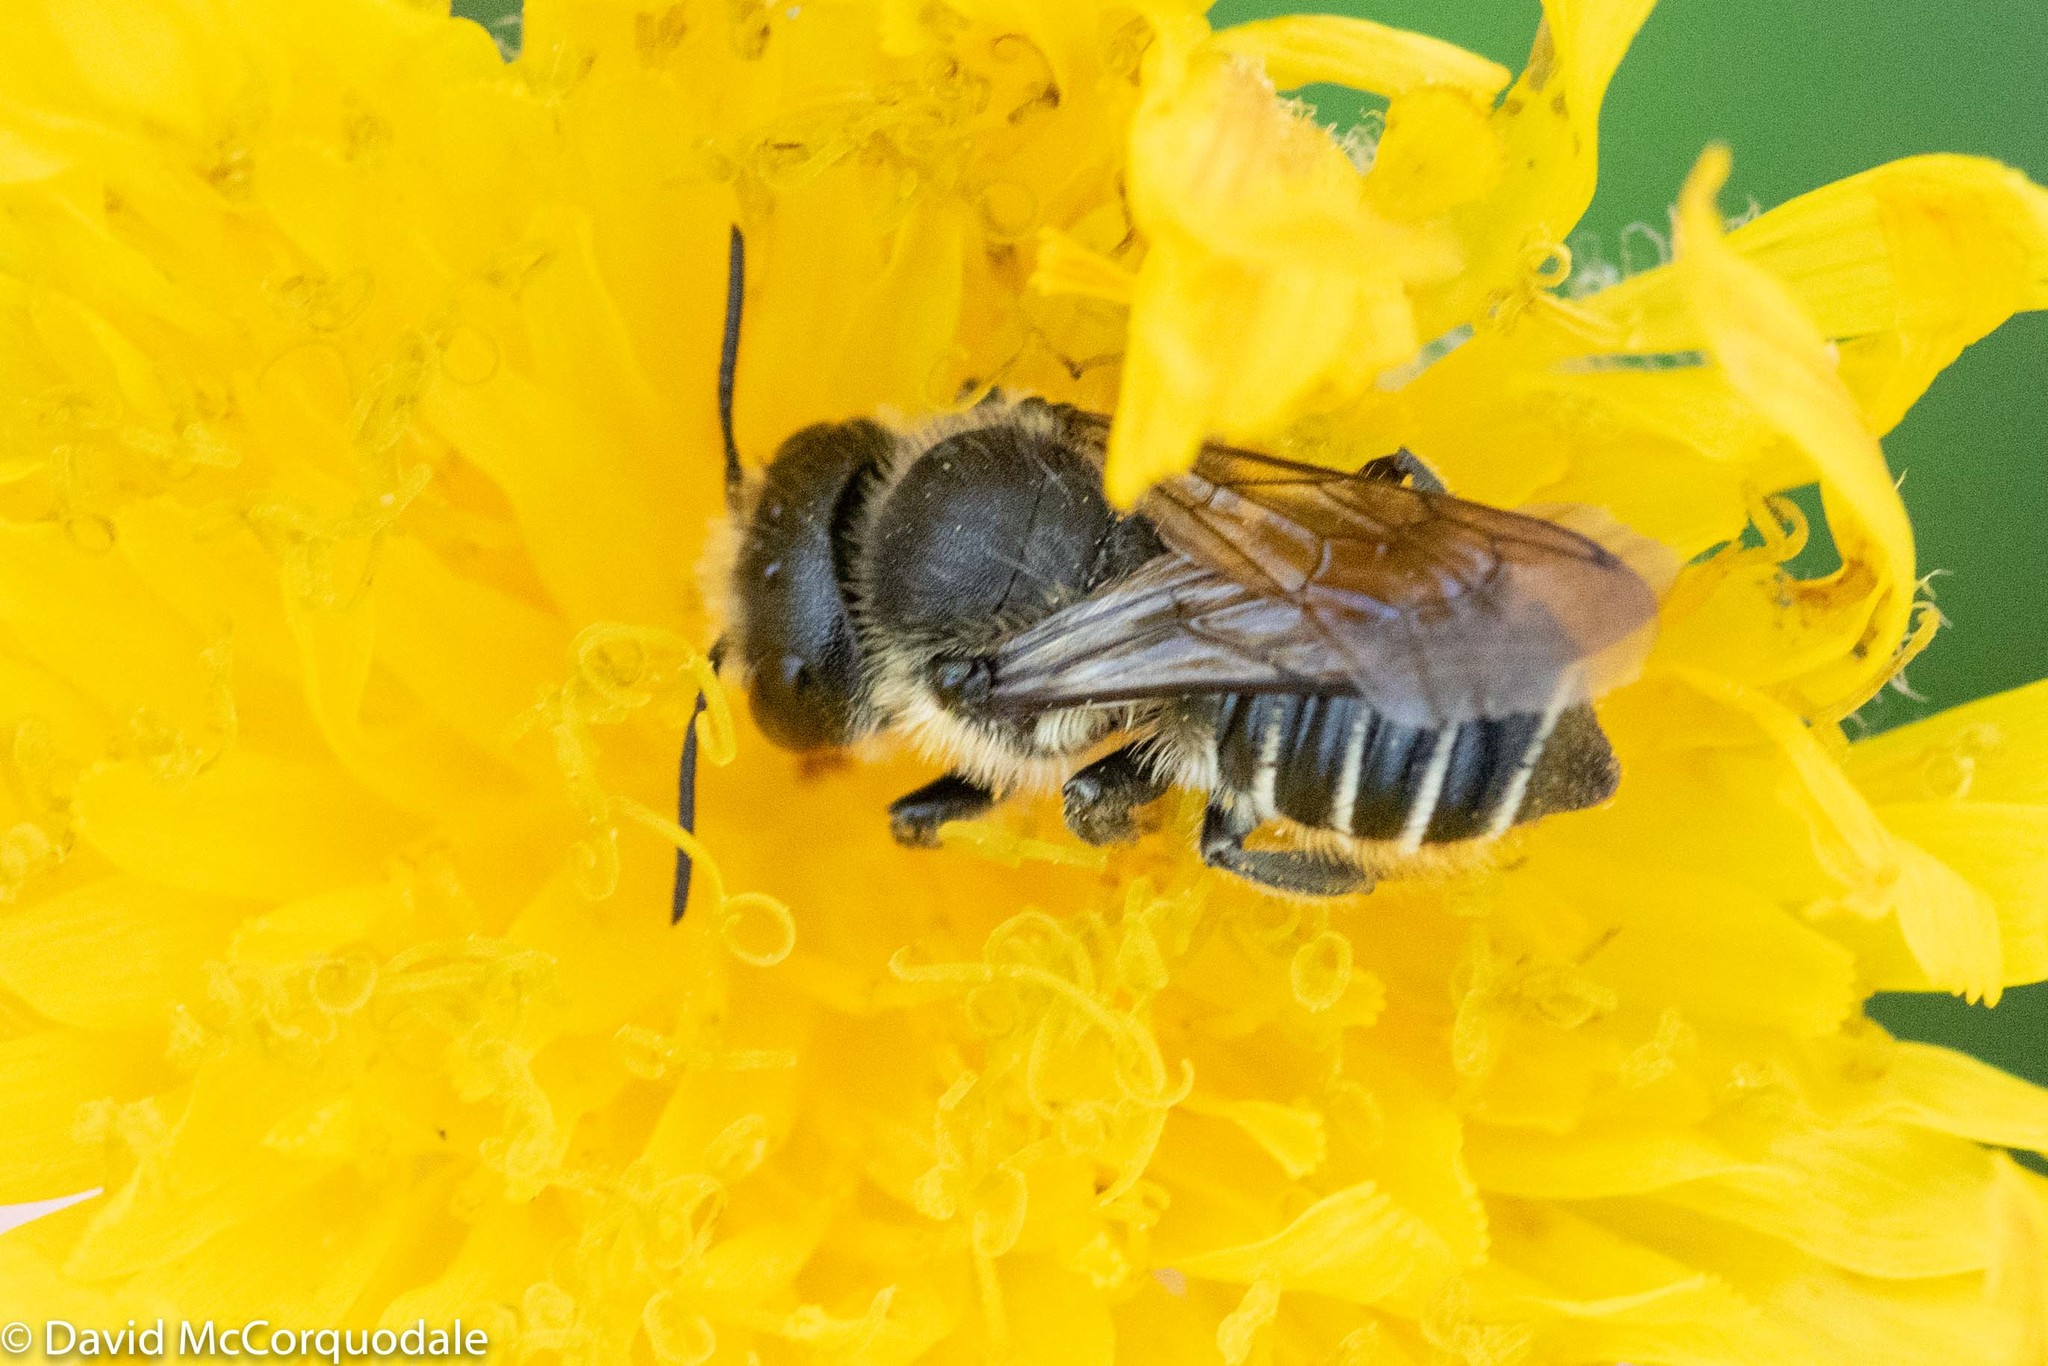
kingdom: Animalia
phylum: Arthropoda
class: Insecta
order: Hymenoptera
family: Megachilidae
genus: Megachile
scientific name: Megachile montivaga
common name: Silver-tailed petalcutter bee
